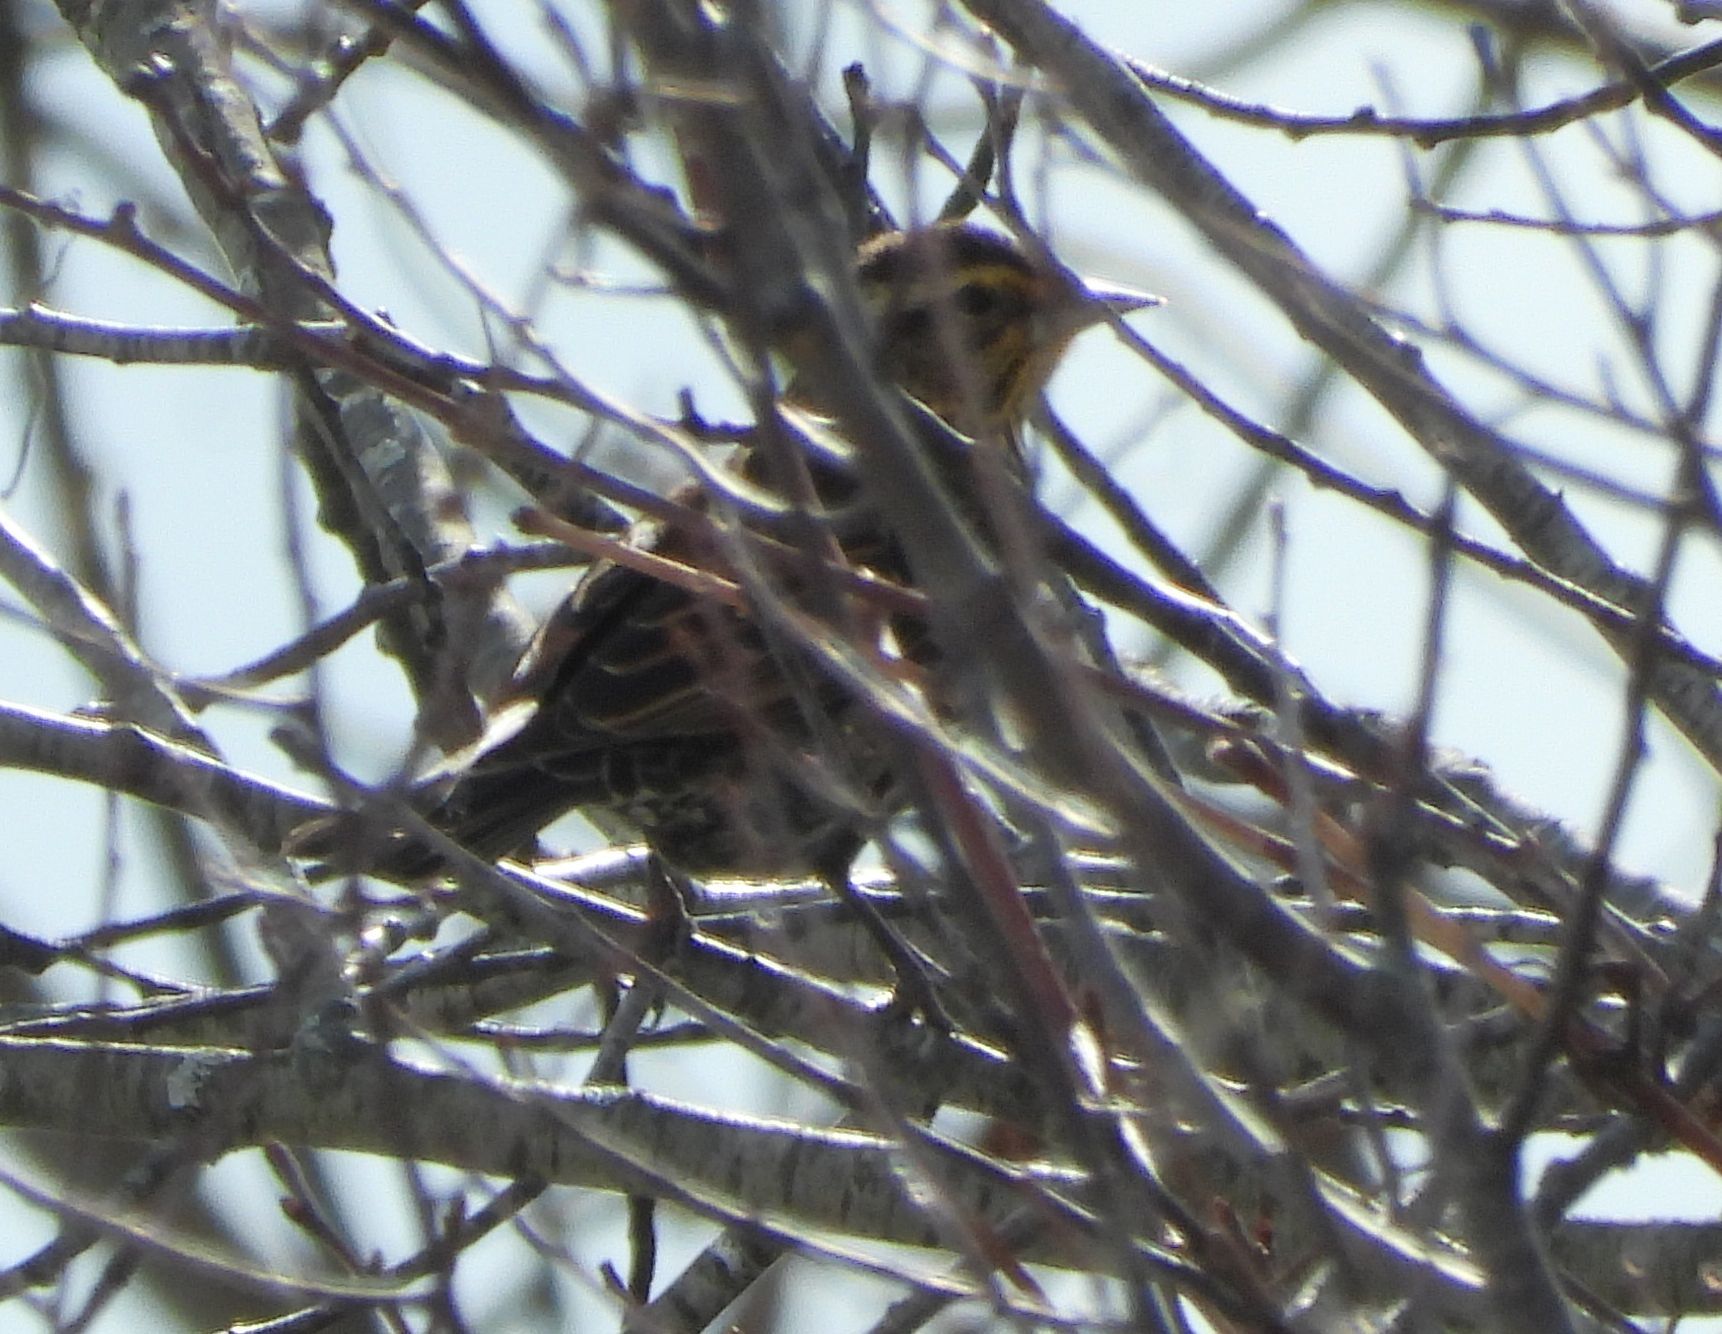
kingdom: Animalia
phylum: Chordata
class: Aves
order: Passeriformes
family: Icteridae
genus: Agelaius
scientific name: Agelaius phoeniceus
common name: Red-winged blackbird
